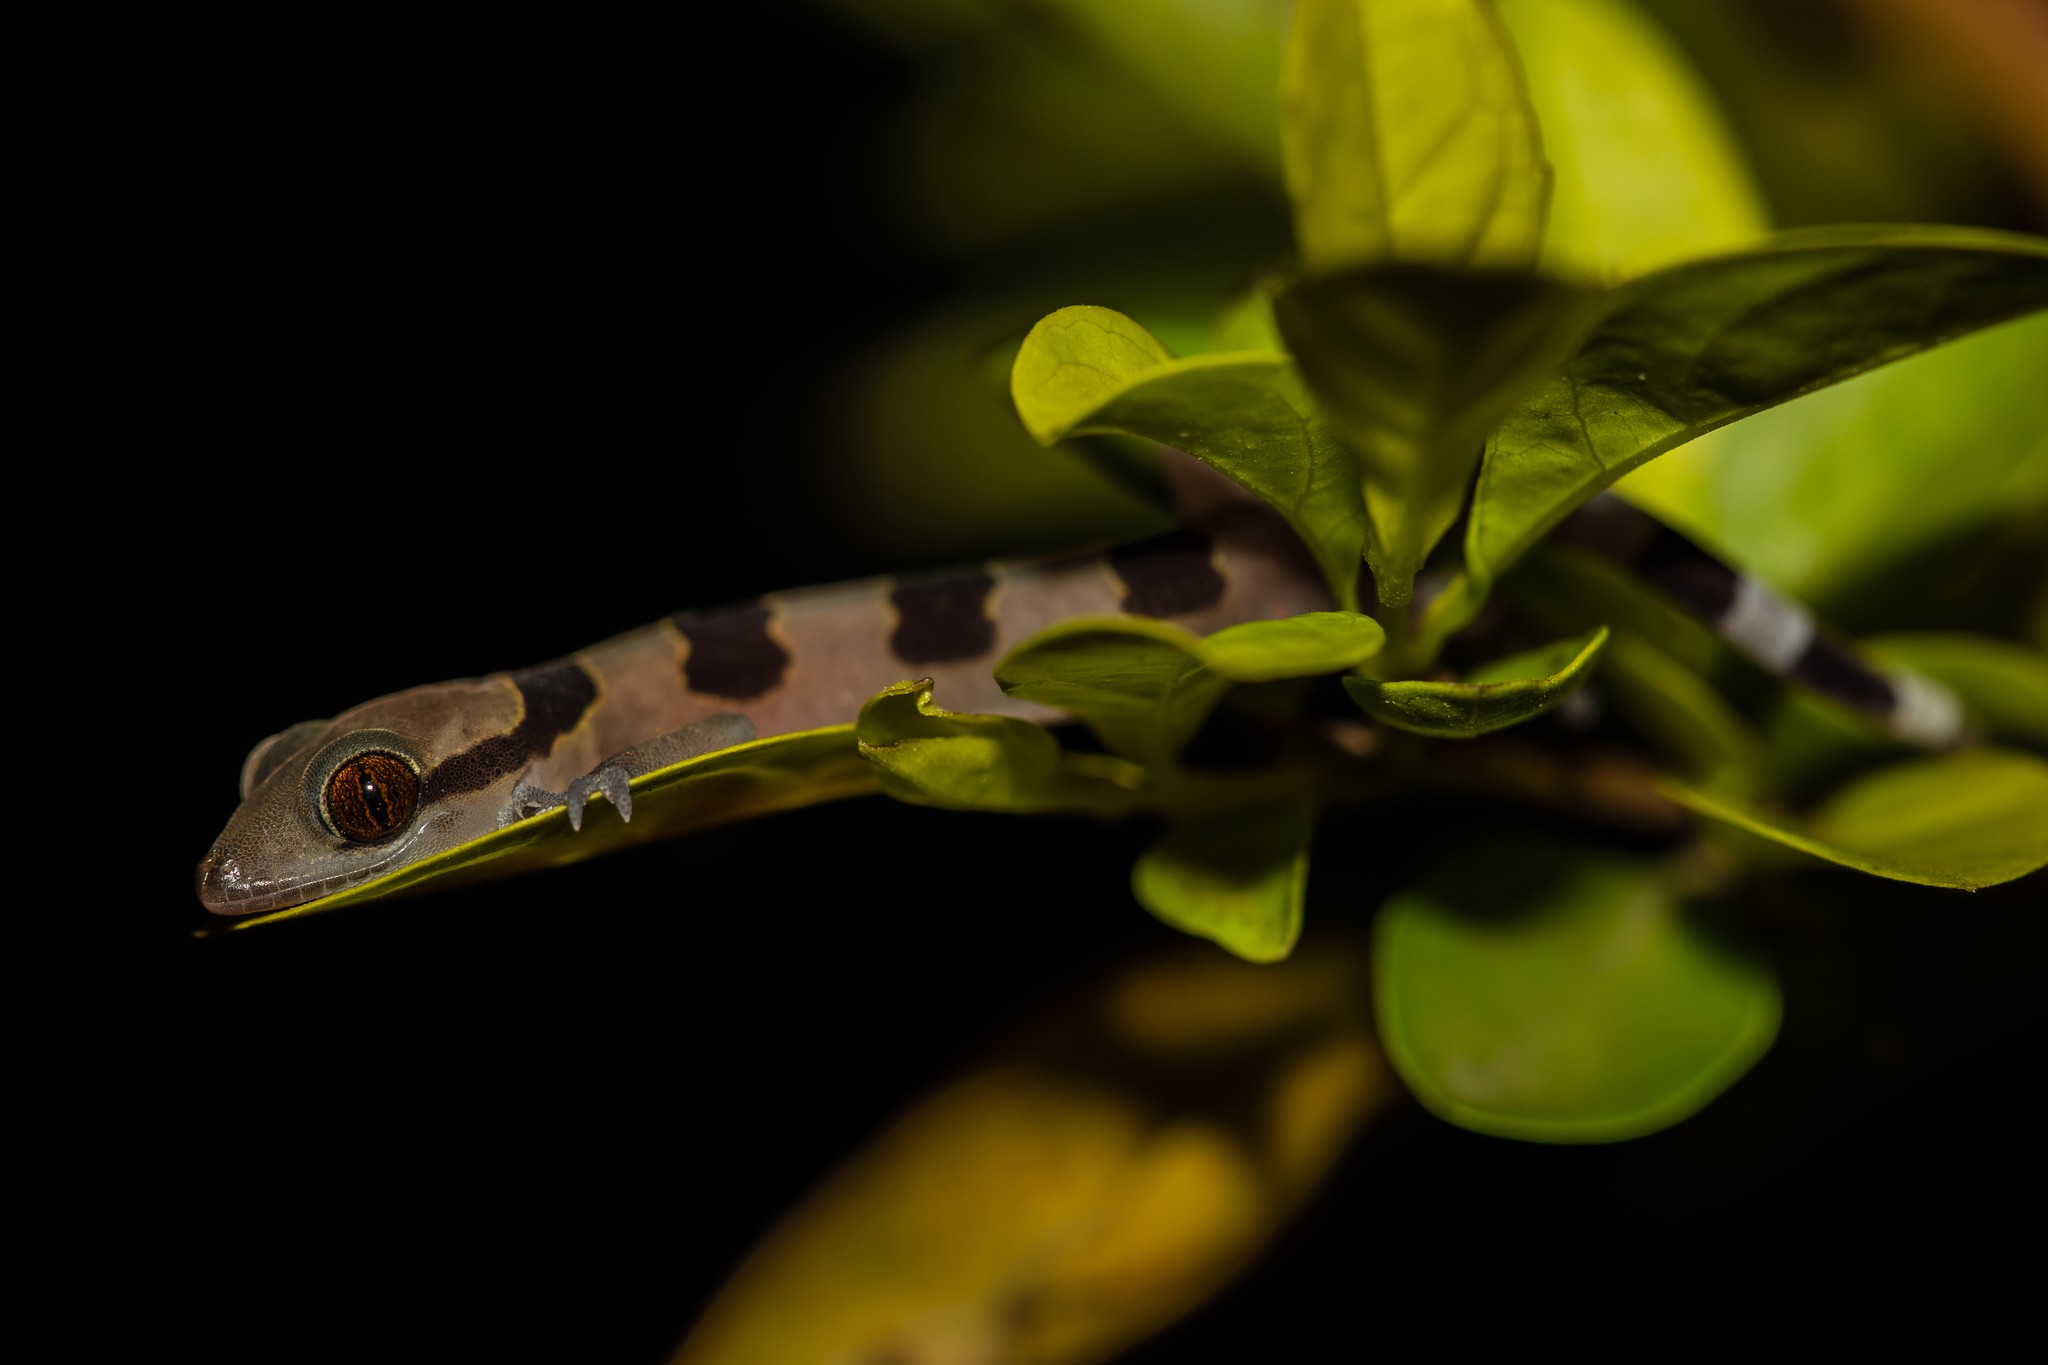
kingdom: Animalia
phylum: Chordata
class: Squamata
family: Gekkonidae
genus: Hemidactylus
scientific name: Hemidactylus eniangii
